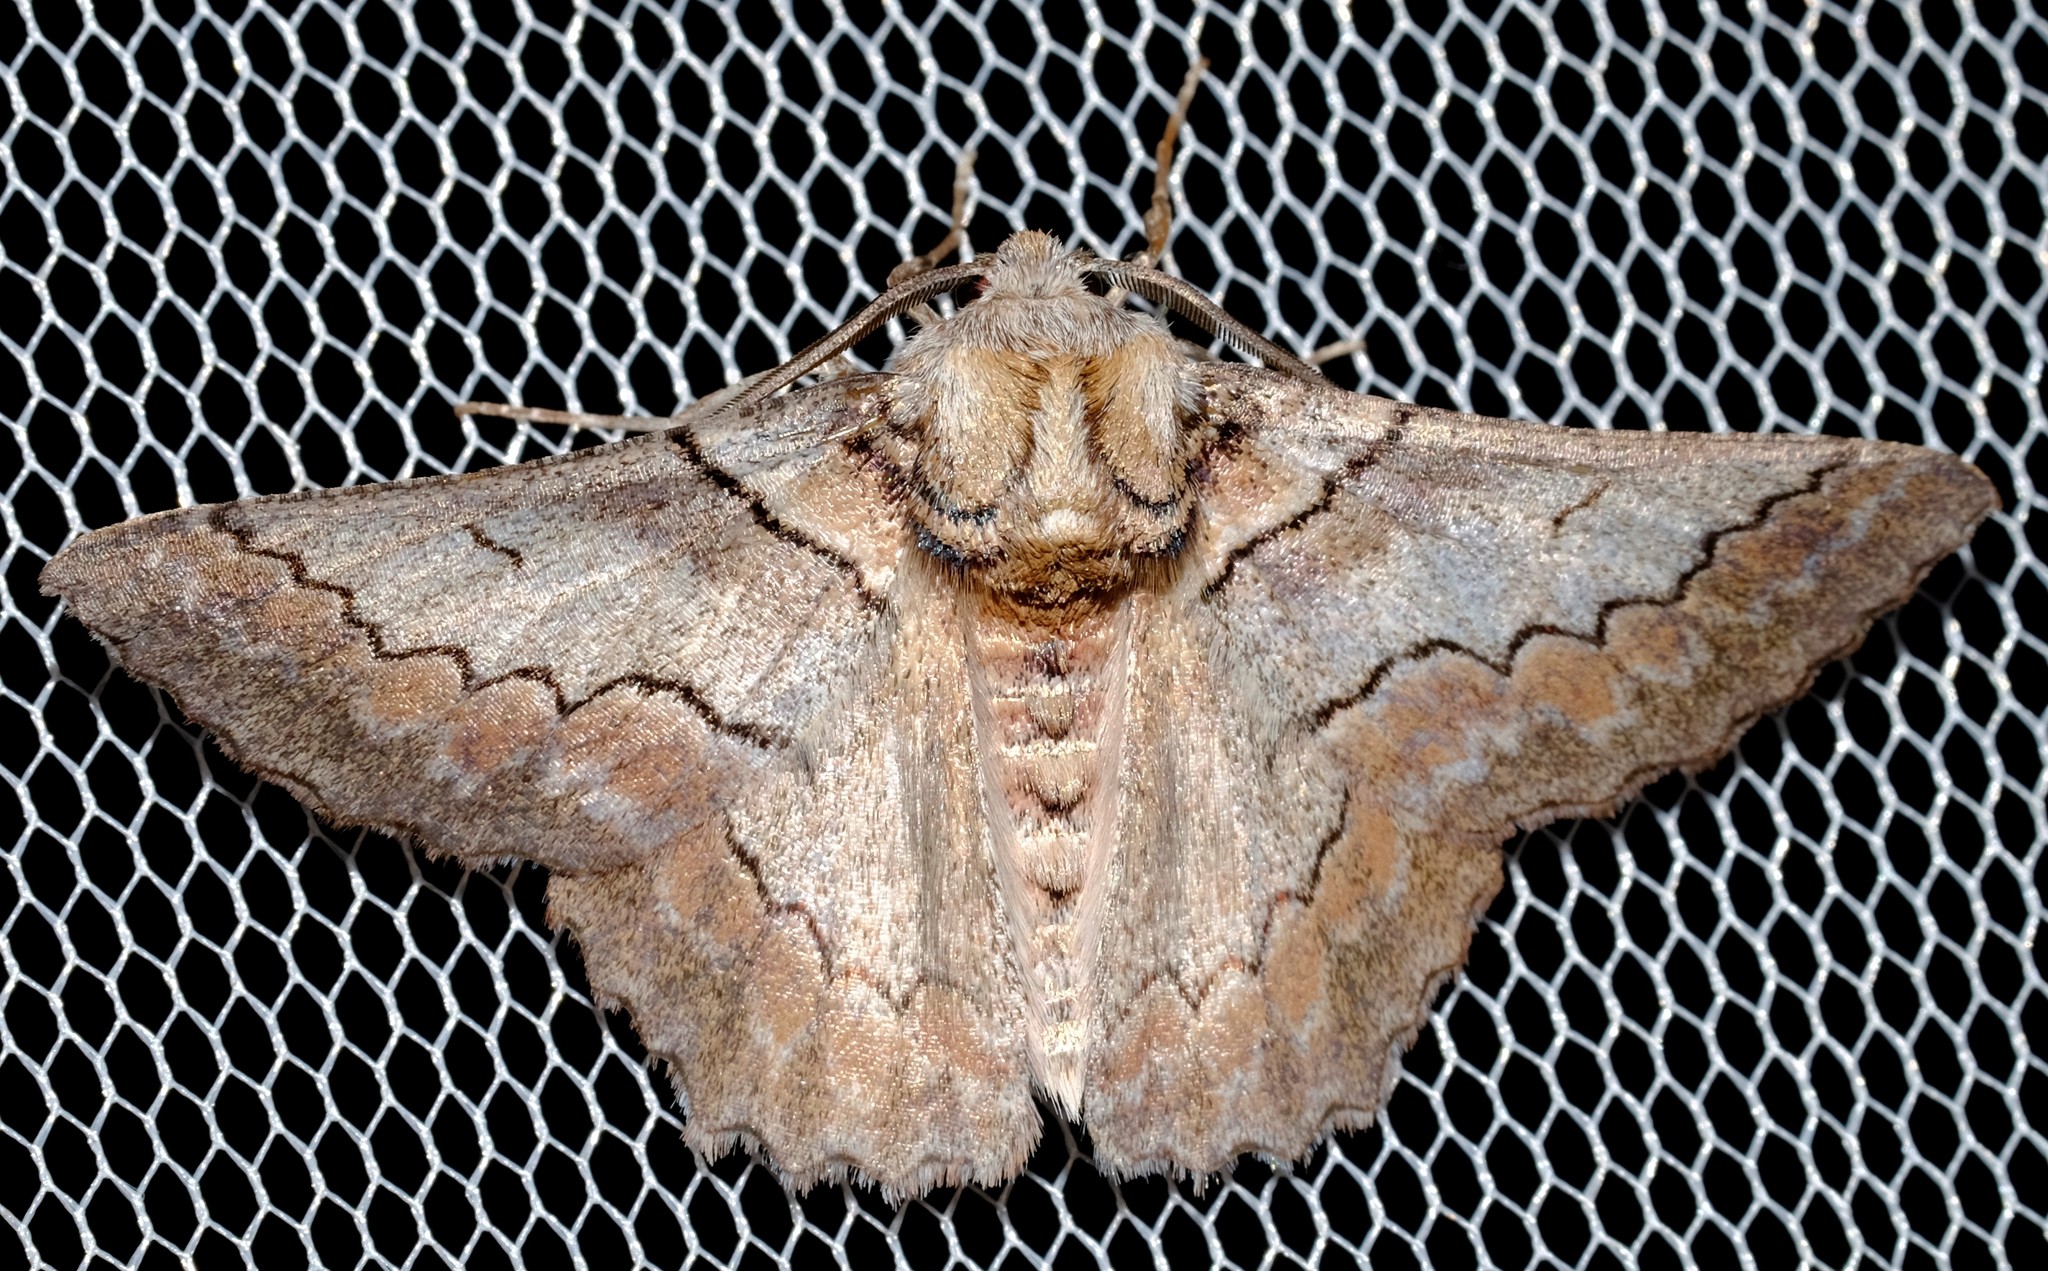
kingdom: Animalia
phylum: Arthropoda
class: Insecta
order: Lepidoptera
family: Geometridae
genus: Hypobapta
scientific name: Hypobapta tachyhalotaria
